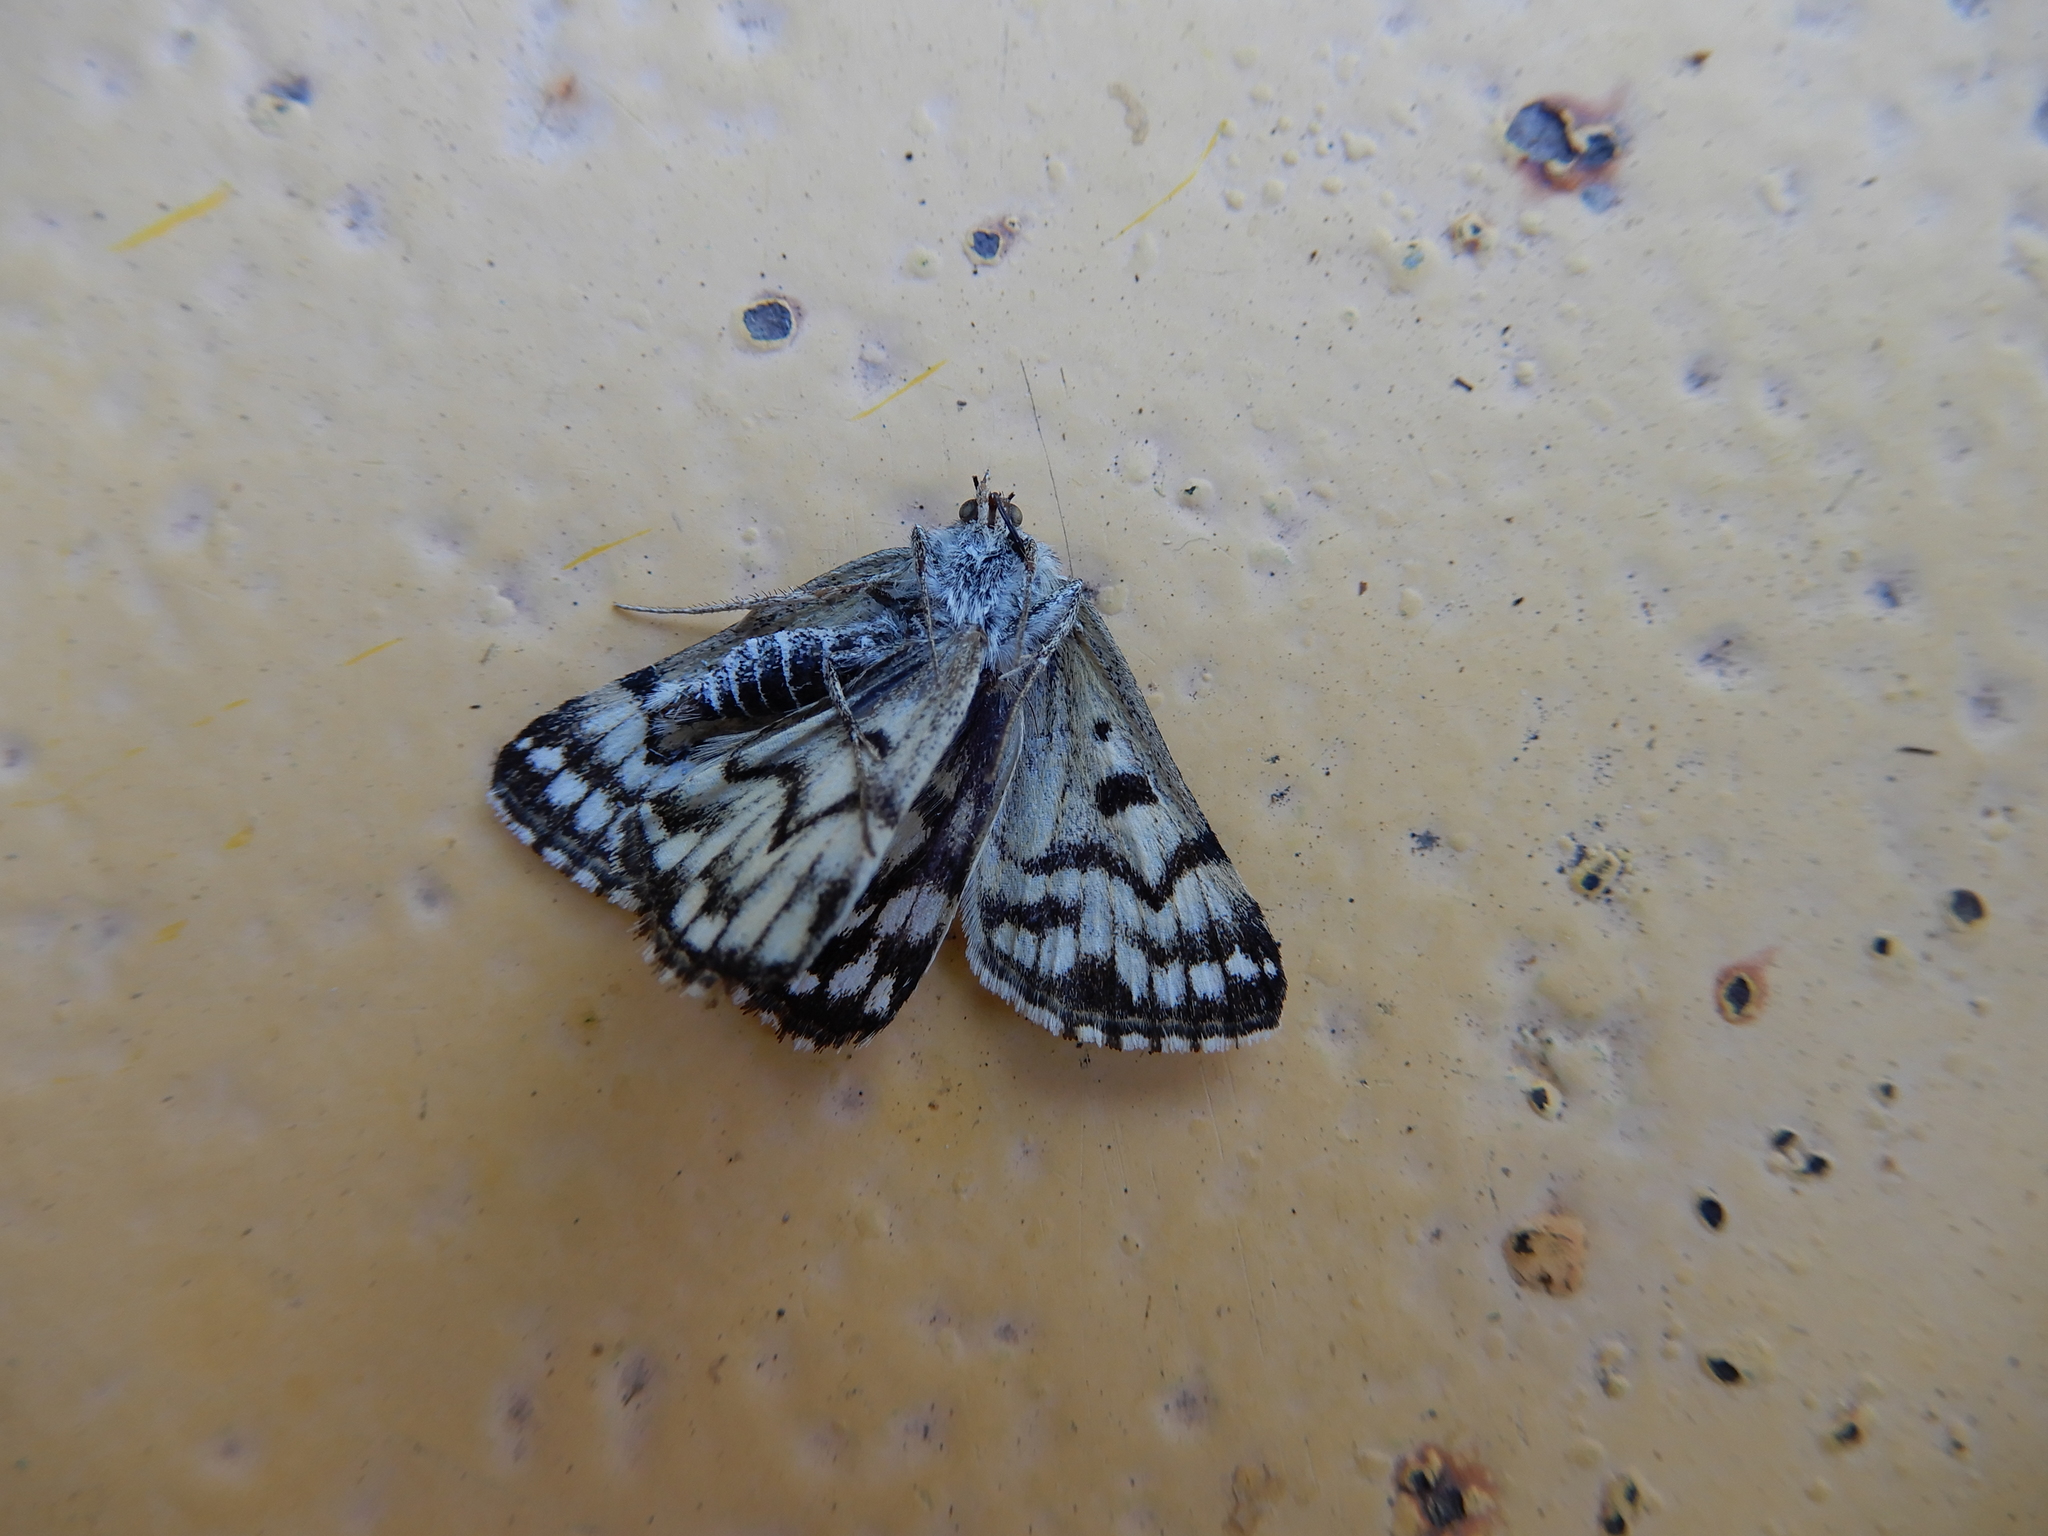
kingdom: Animalia
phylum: Arthropoda
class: Insecta
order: Lepidoptera
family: Erebidae
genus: Callistege
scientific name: Callistege mi
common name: Mother shipton
